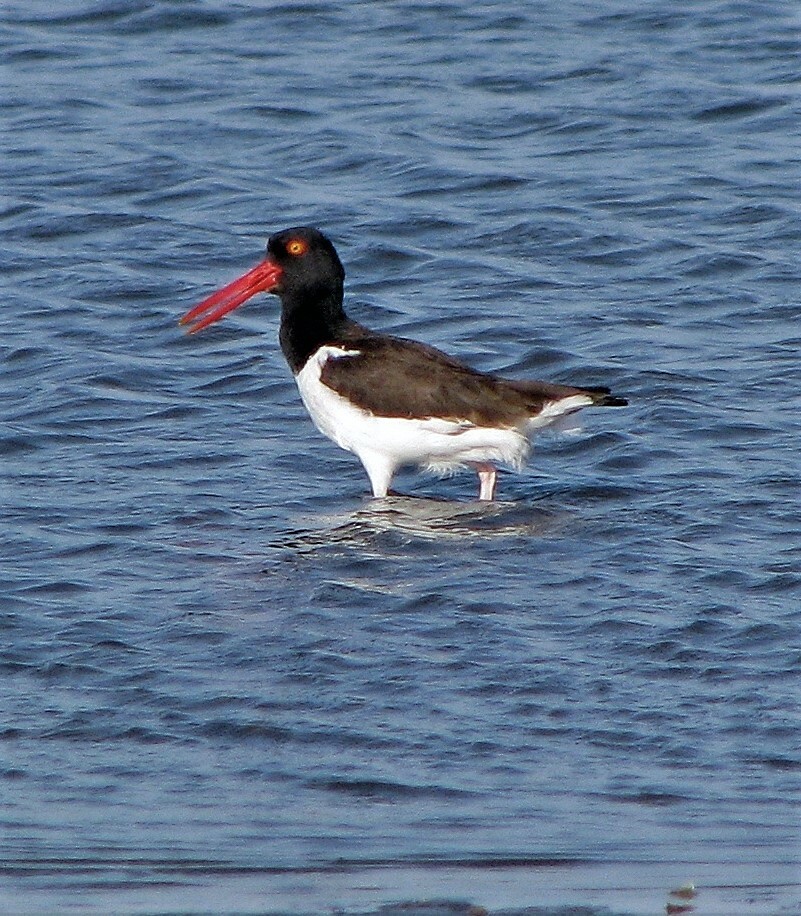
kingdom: Animalia
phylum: Chordata
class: Aves
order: Charadriiformes
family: Haematopodidae
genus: Haematopus
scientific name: Haematopus palliatus
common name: American oystercatcher
